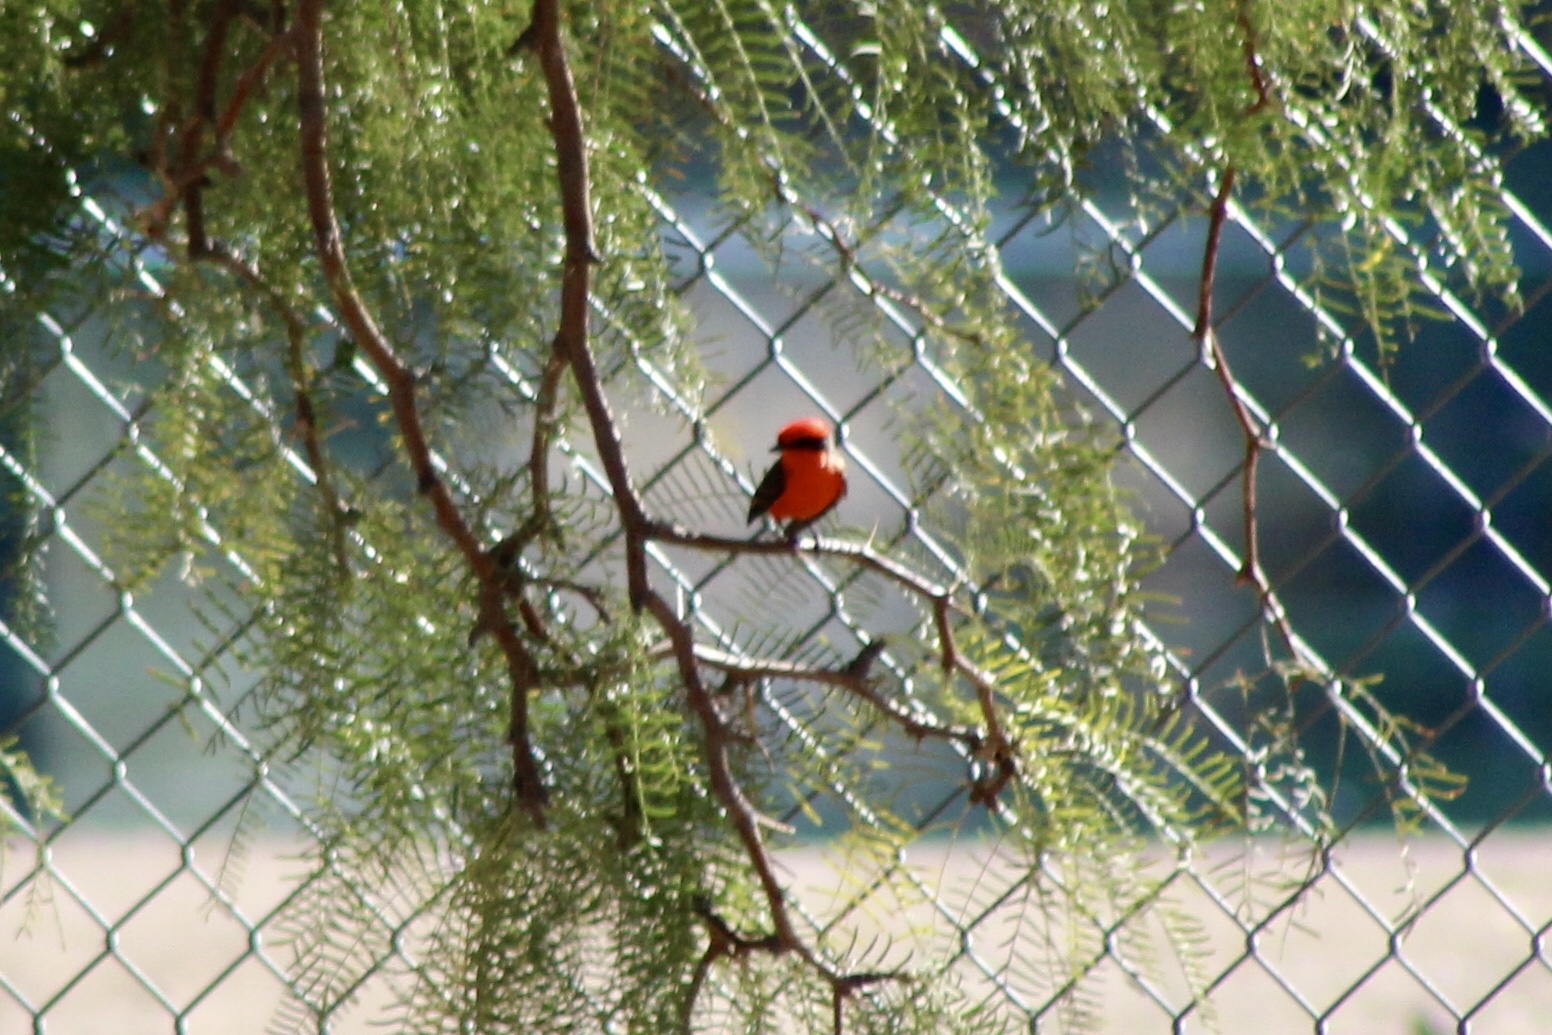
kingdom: Animalia
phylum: Chordata
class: Aves
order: Passeriformes
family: Tyrannidae
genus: Pyrocephalus
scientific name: Pyrocephalus rubinus
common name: Vermilion flycatcher
